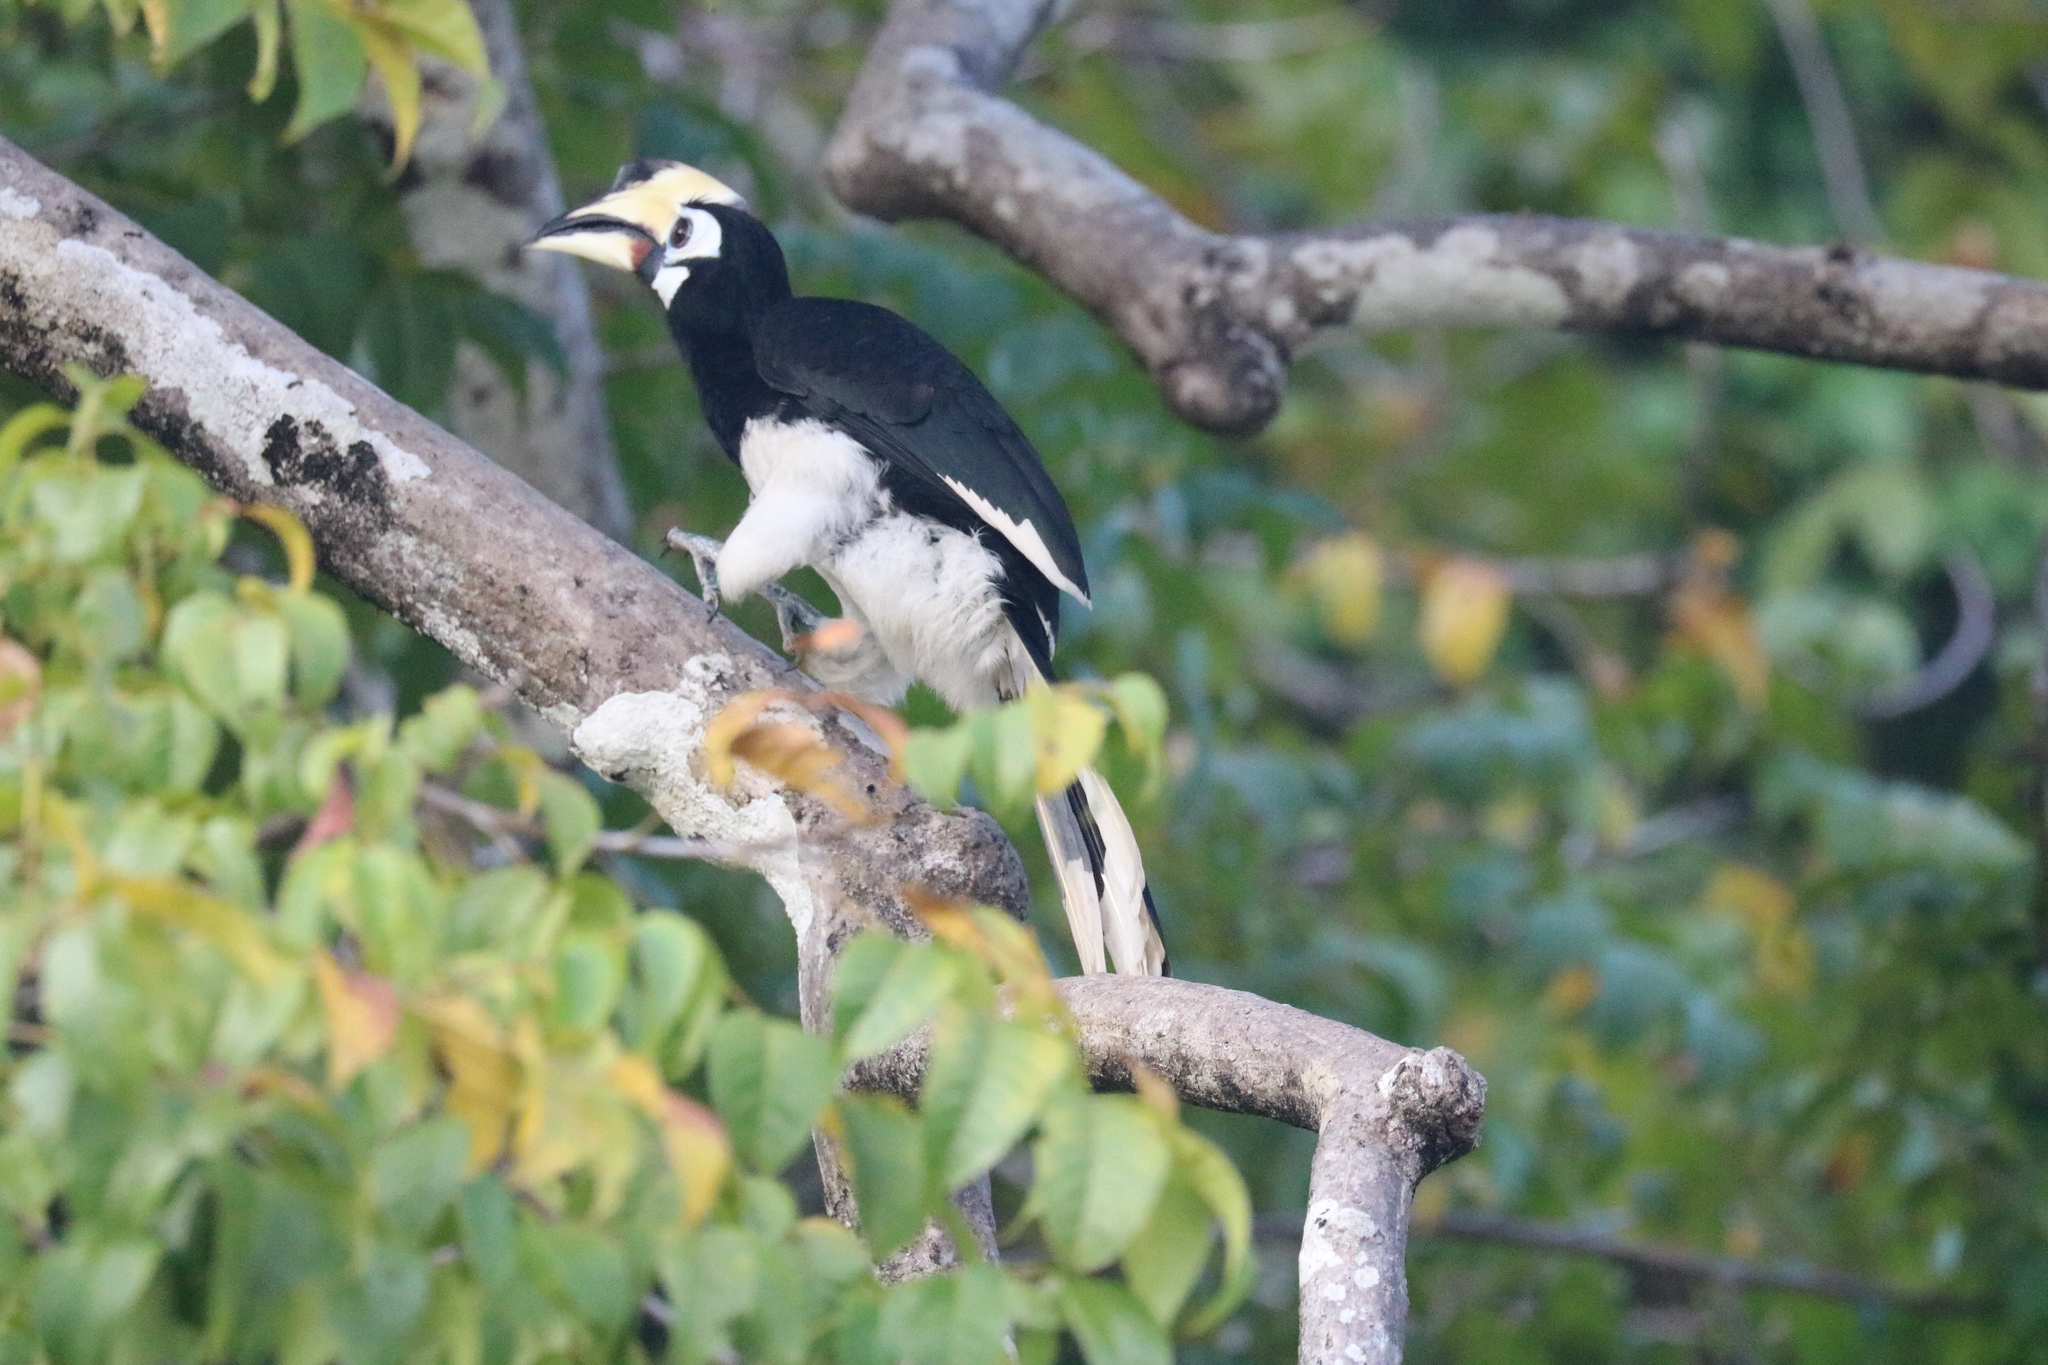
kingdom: Animalia
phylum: Chordata
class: Aves
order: Bucerotiformes
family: Bucerotidae
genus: Anthracoceros
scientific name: Anthracoceros albirostris
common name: Oriental pied-hornbill
